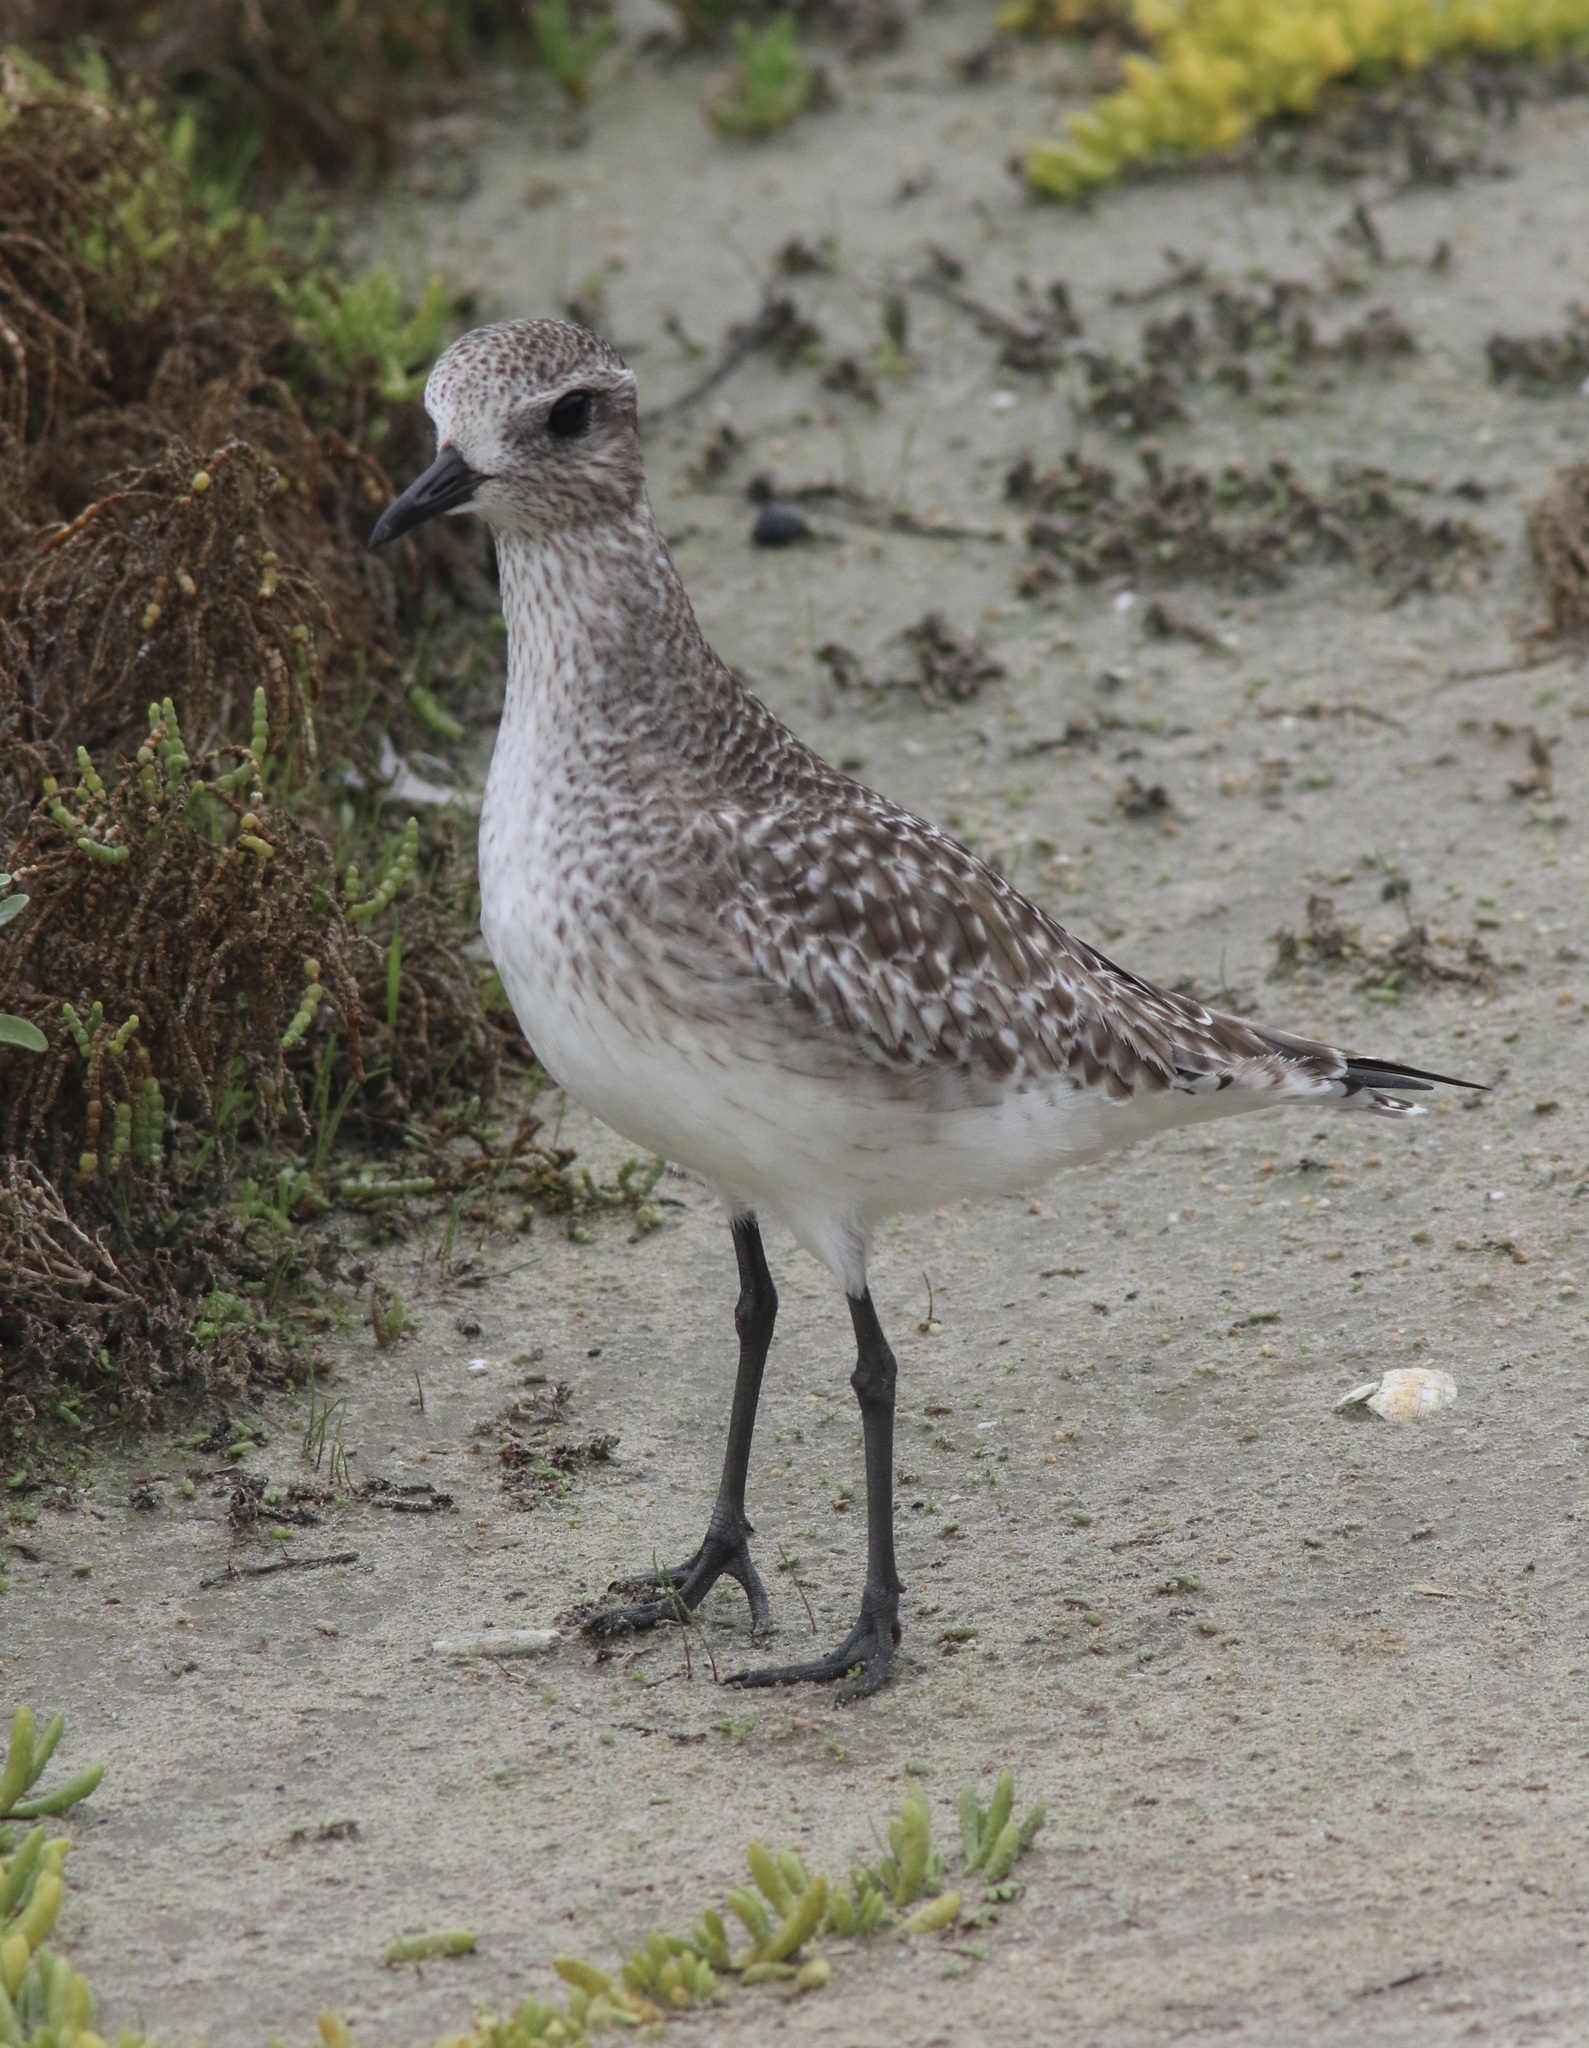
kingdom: Animalia
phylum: Chordata
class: Aves
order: Charadriiformes
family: Charadriidae
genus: Pluvialis
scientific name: Pluvialis squatarola
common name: Grey plover
